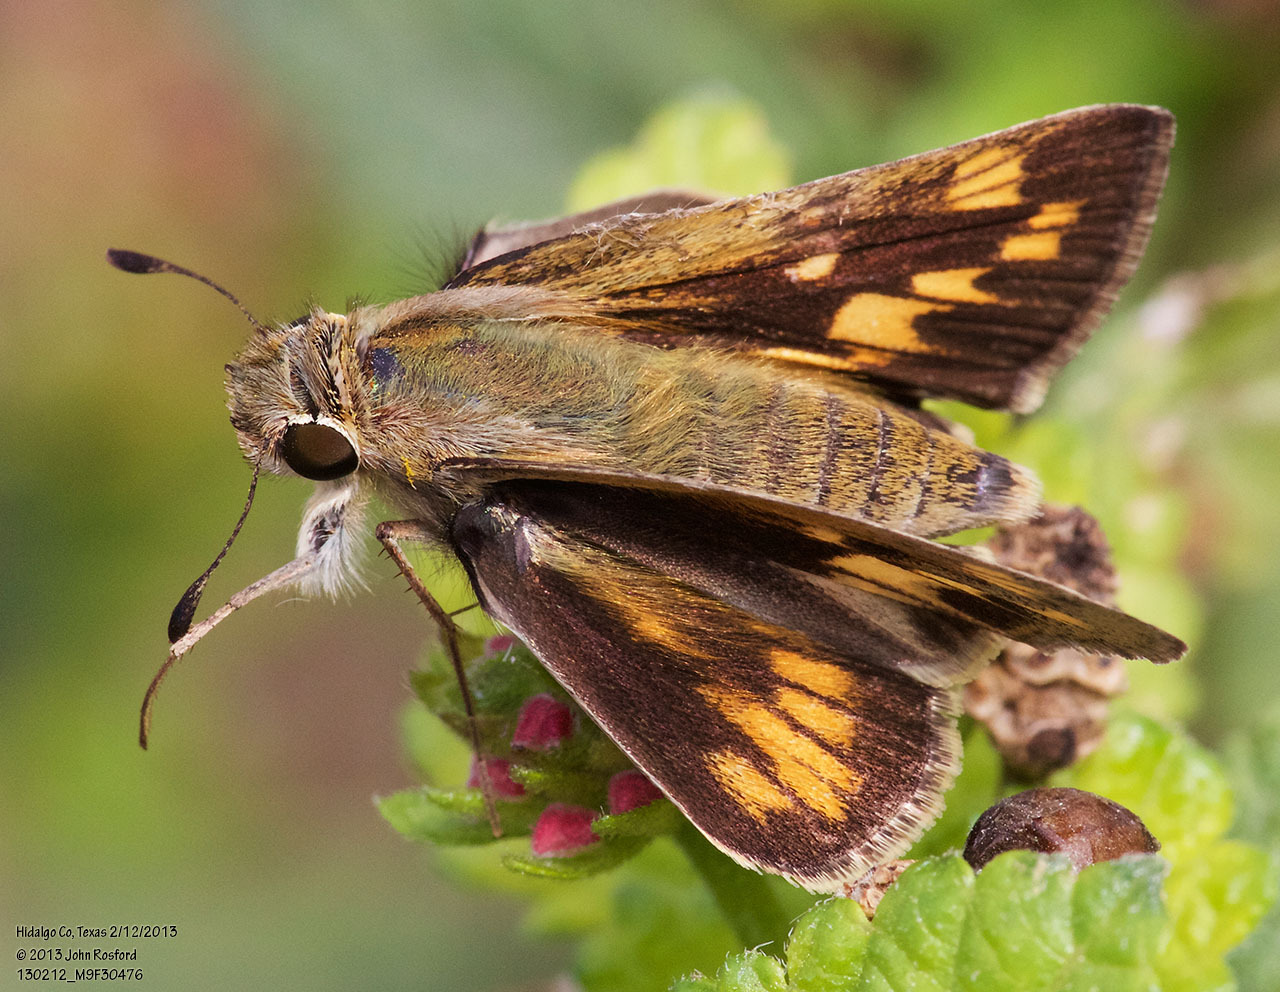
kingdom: Animalia
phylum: Arthropoda
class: Insecta
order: Lepidoptera
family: Hesperiidae
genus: Hylephila
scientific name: Hylephila phyleus
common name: Fiery skipper
